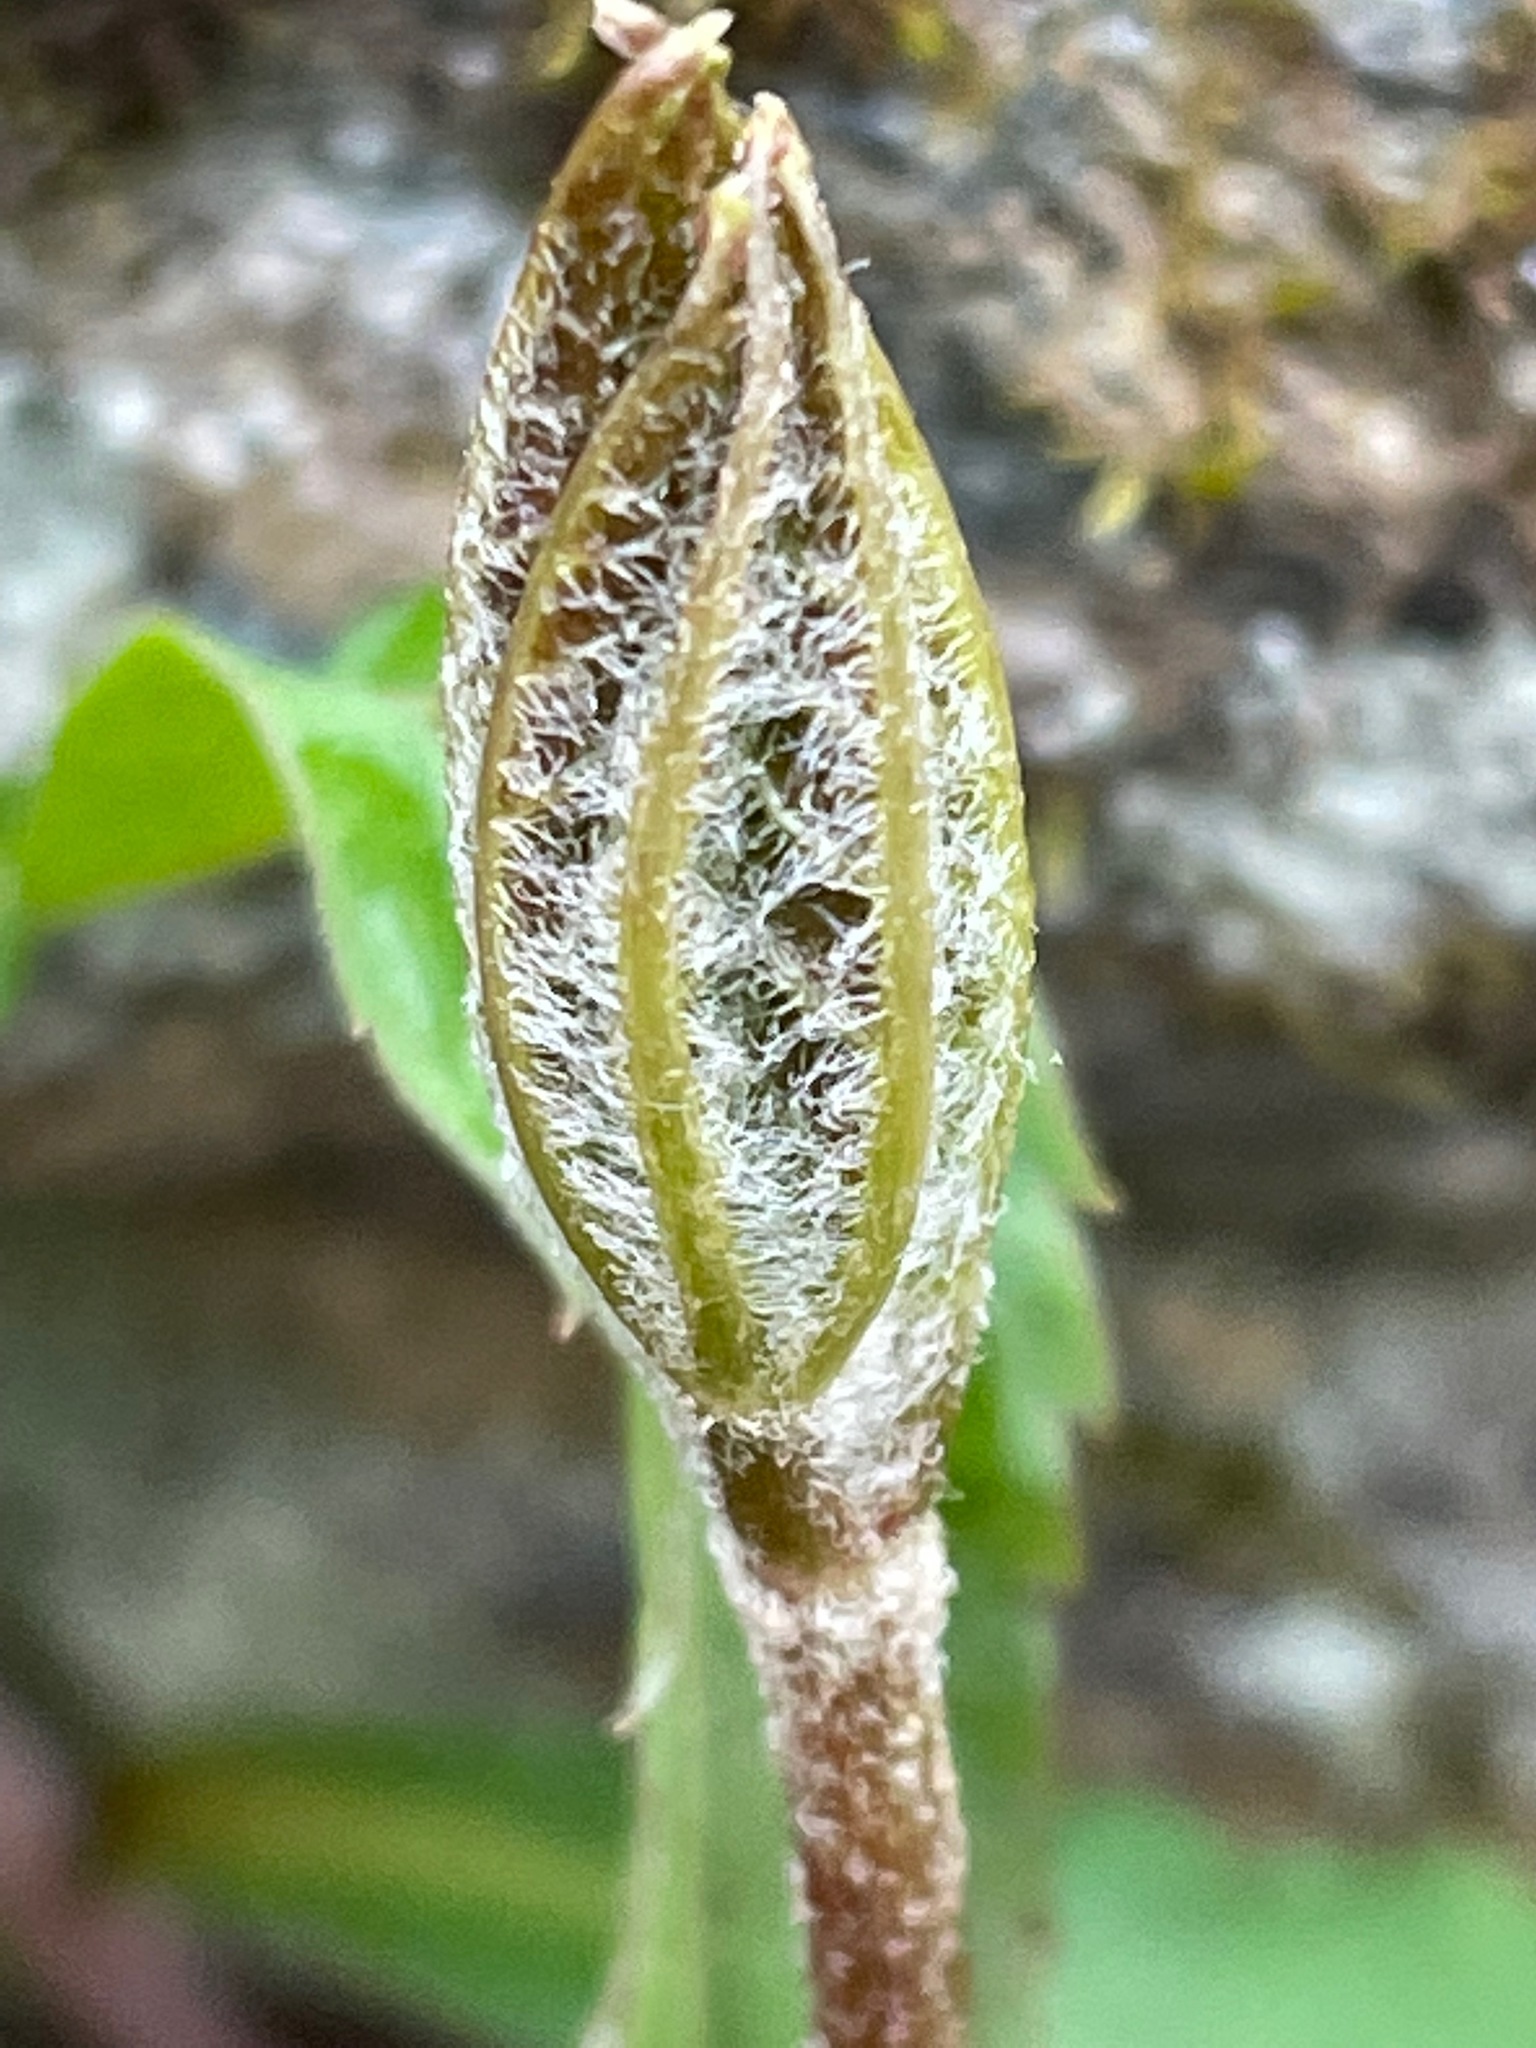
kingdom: Plantae
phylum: Tracheophyta
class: Magnoliopsida
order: Apiales
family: Araliaceae
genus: Aralia
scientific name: Aralia nudicaulis
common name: Wild sarsaparilla
